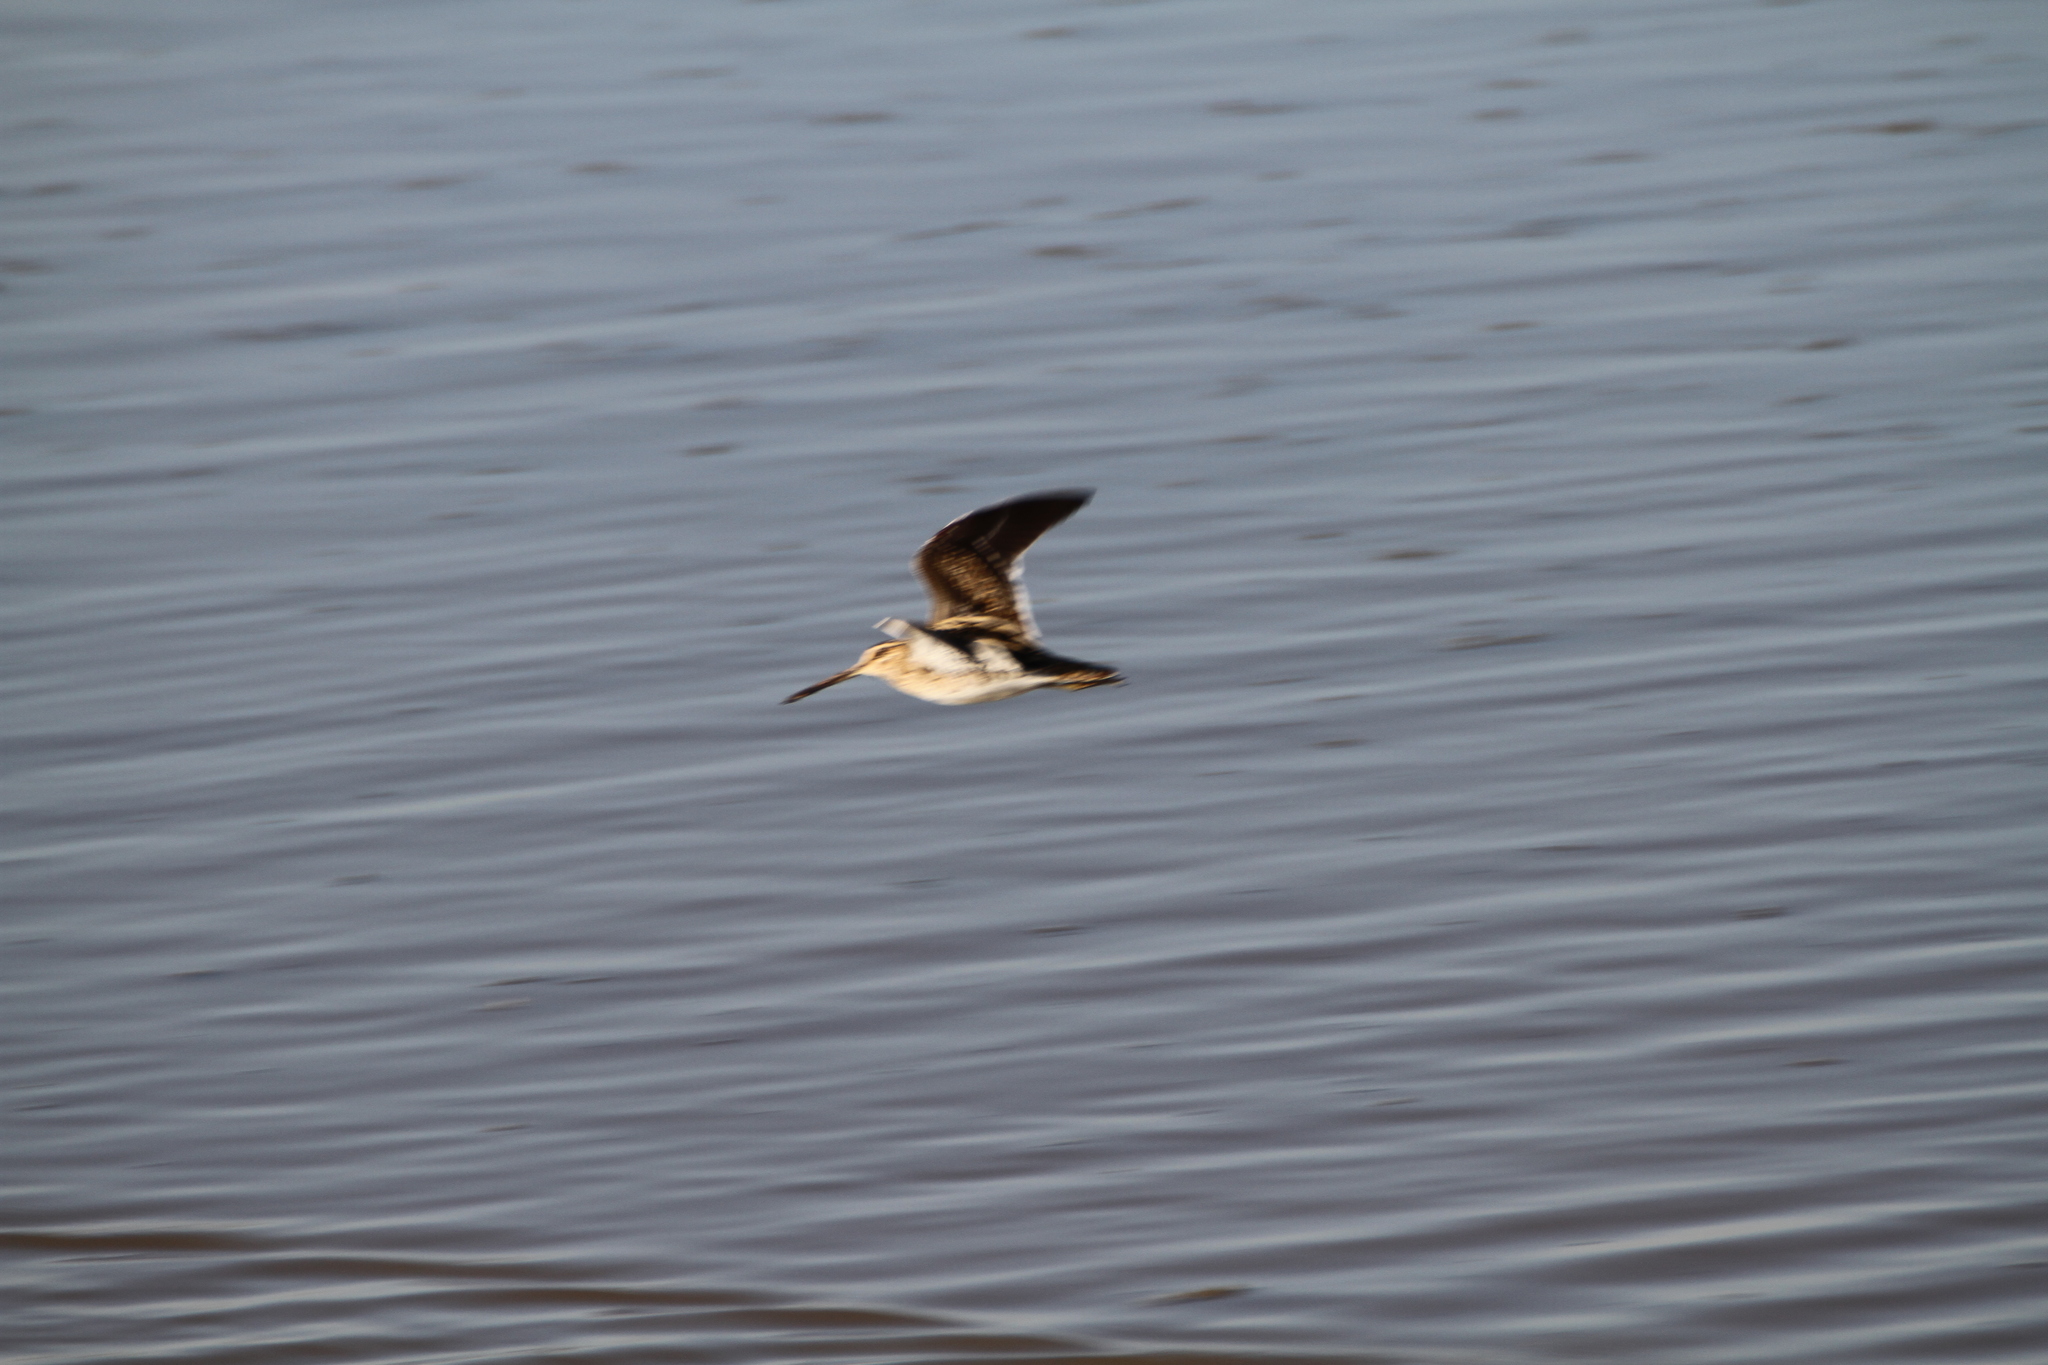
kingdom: Animalia
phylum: Chordata
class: Aves
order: Charadriiformes
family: Scolopacidae
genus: Gallinago
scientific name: Gallinago gallinago
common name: Common snipe
